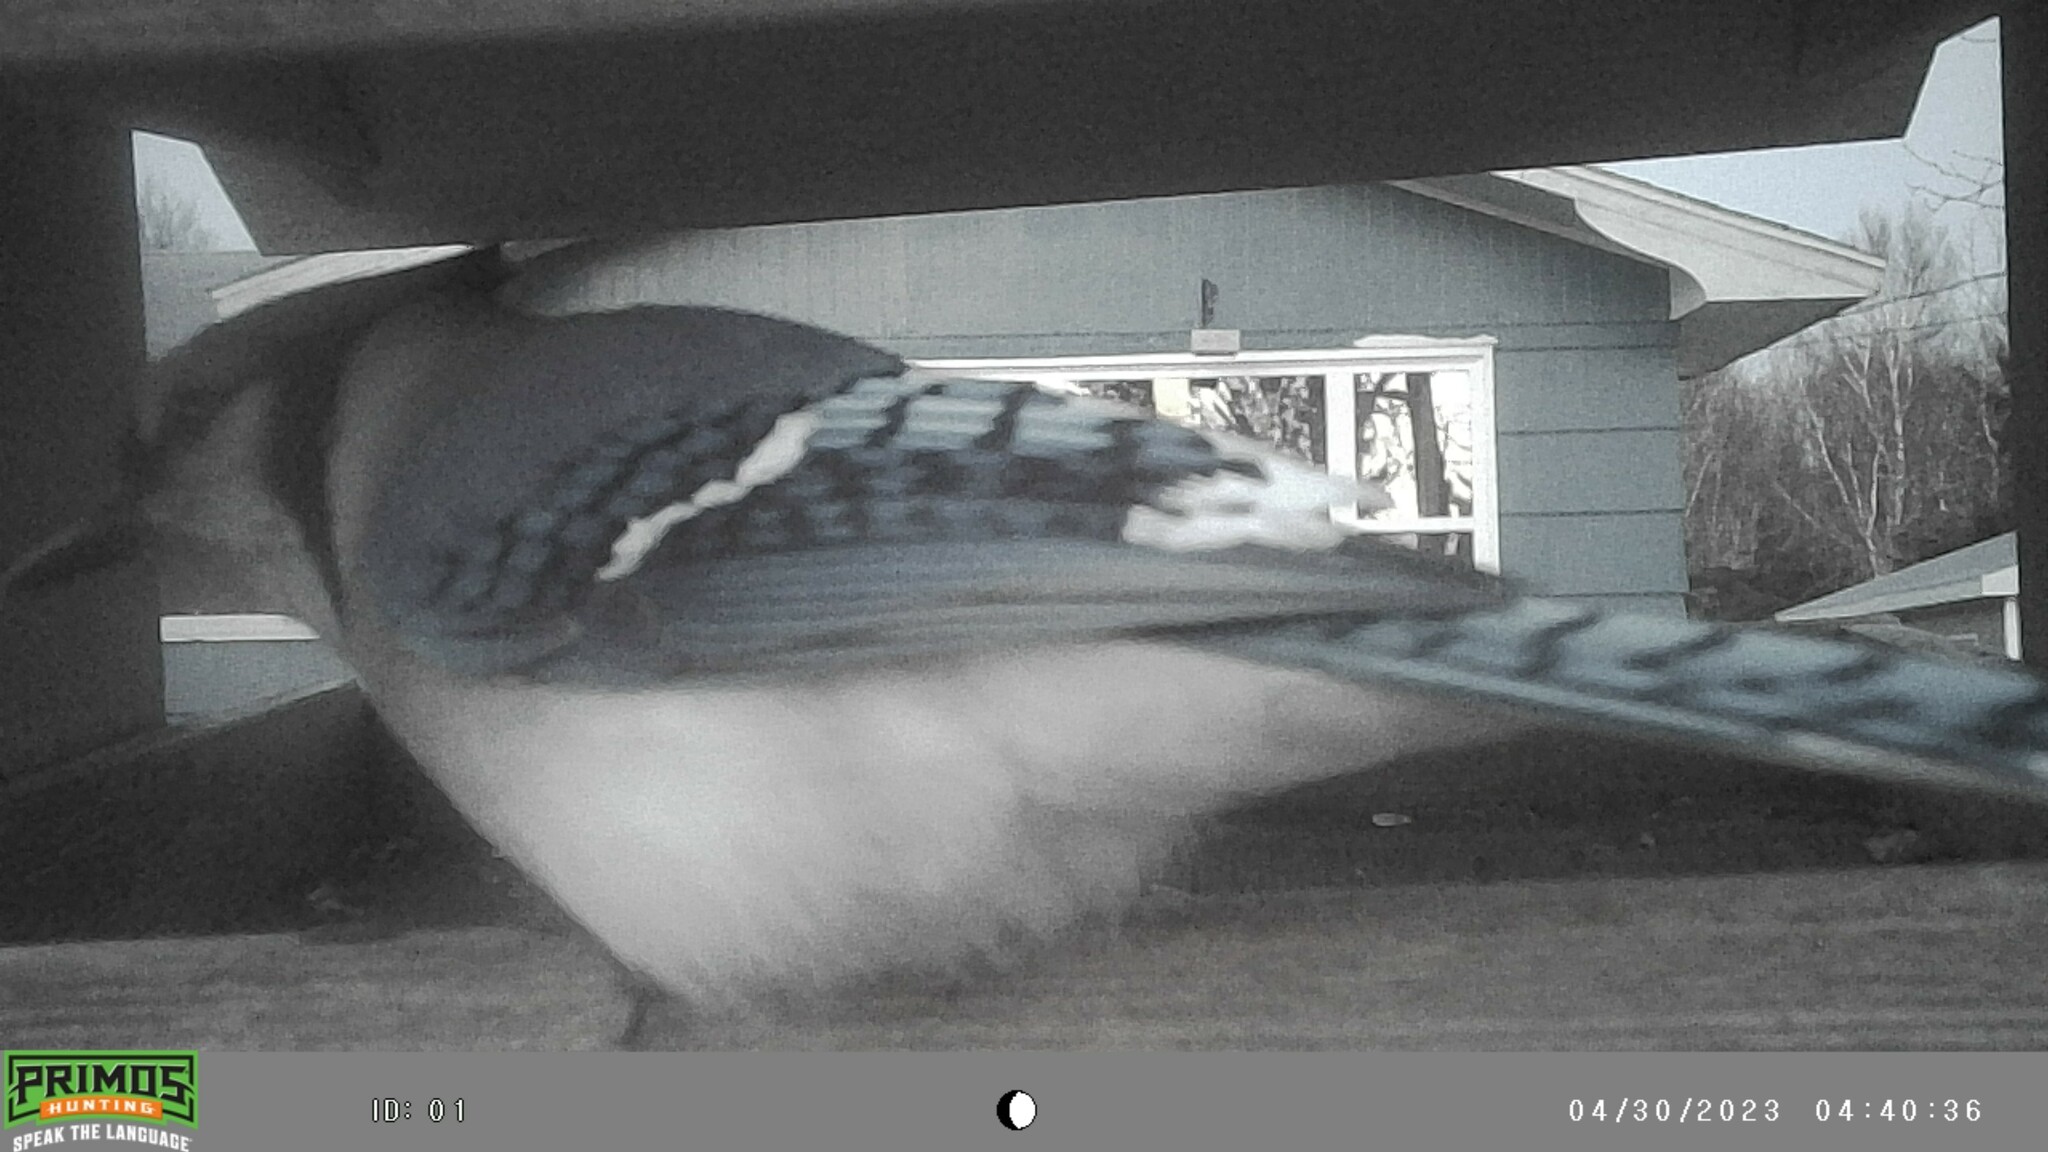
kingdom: Animalia
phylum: Chordata
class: Aves
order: Passeriformes
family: Corvidae
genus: Cyanocitta
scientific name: Cyanocitta cristata
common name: Blue jay
